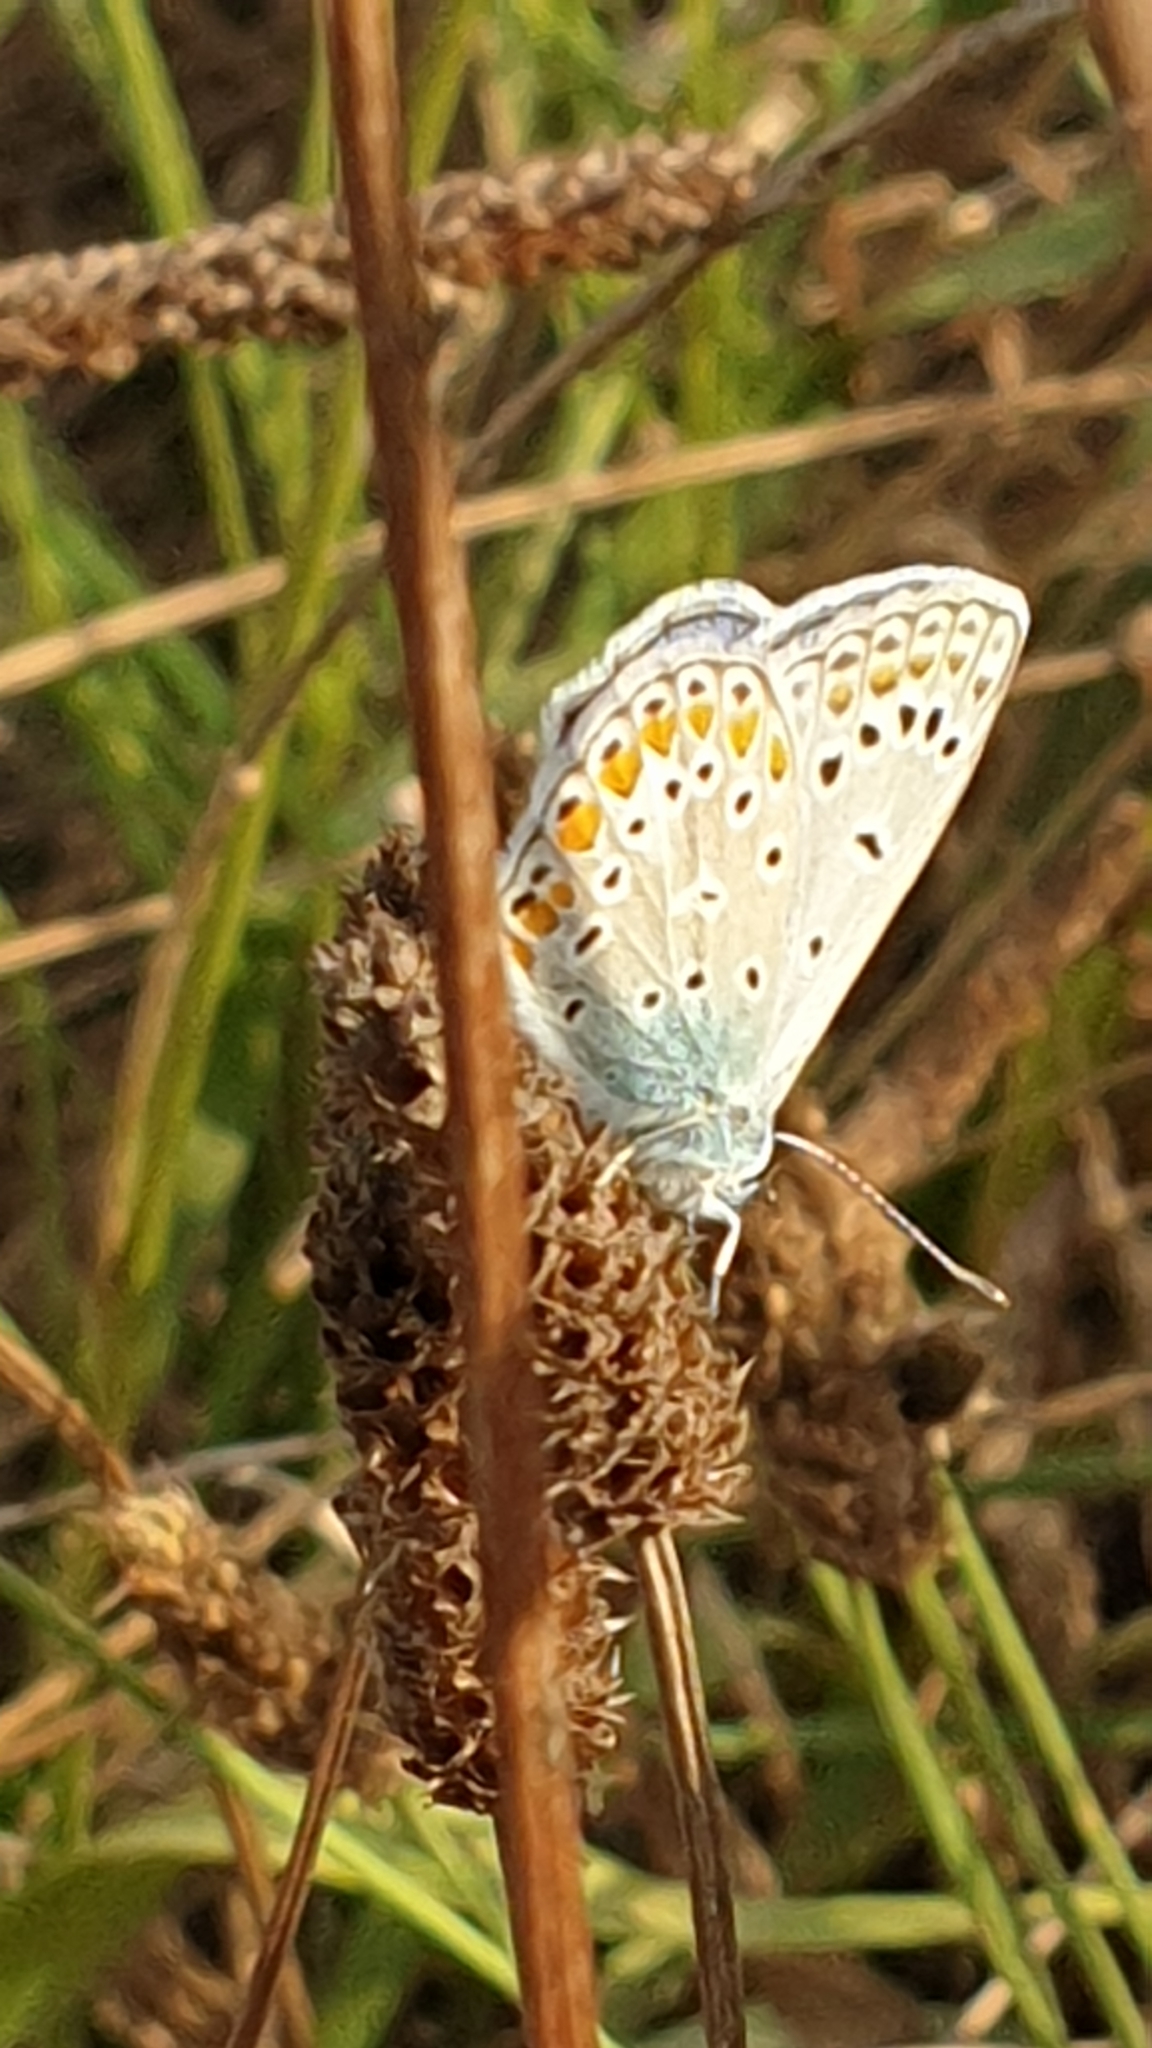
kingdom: Animalia
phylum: Arthropoda
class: Insecta
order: Lepidoptera
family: Lycaenidae
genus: Polyommatus
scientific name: Polyommatus icarus
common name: Common blue
